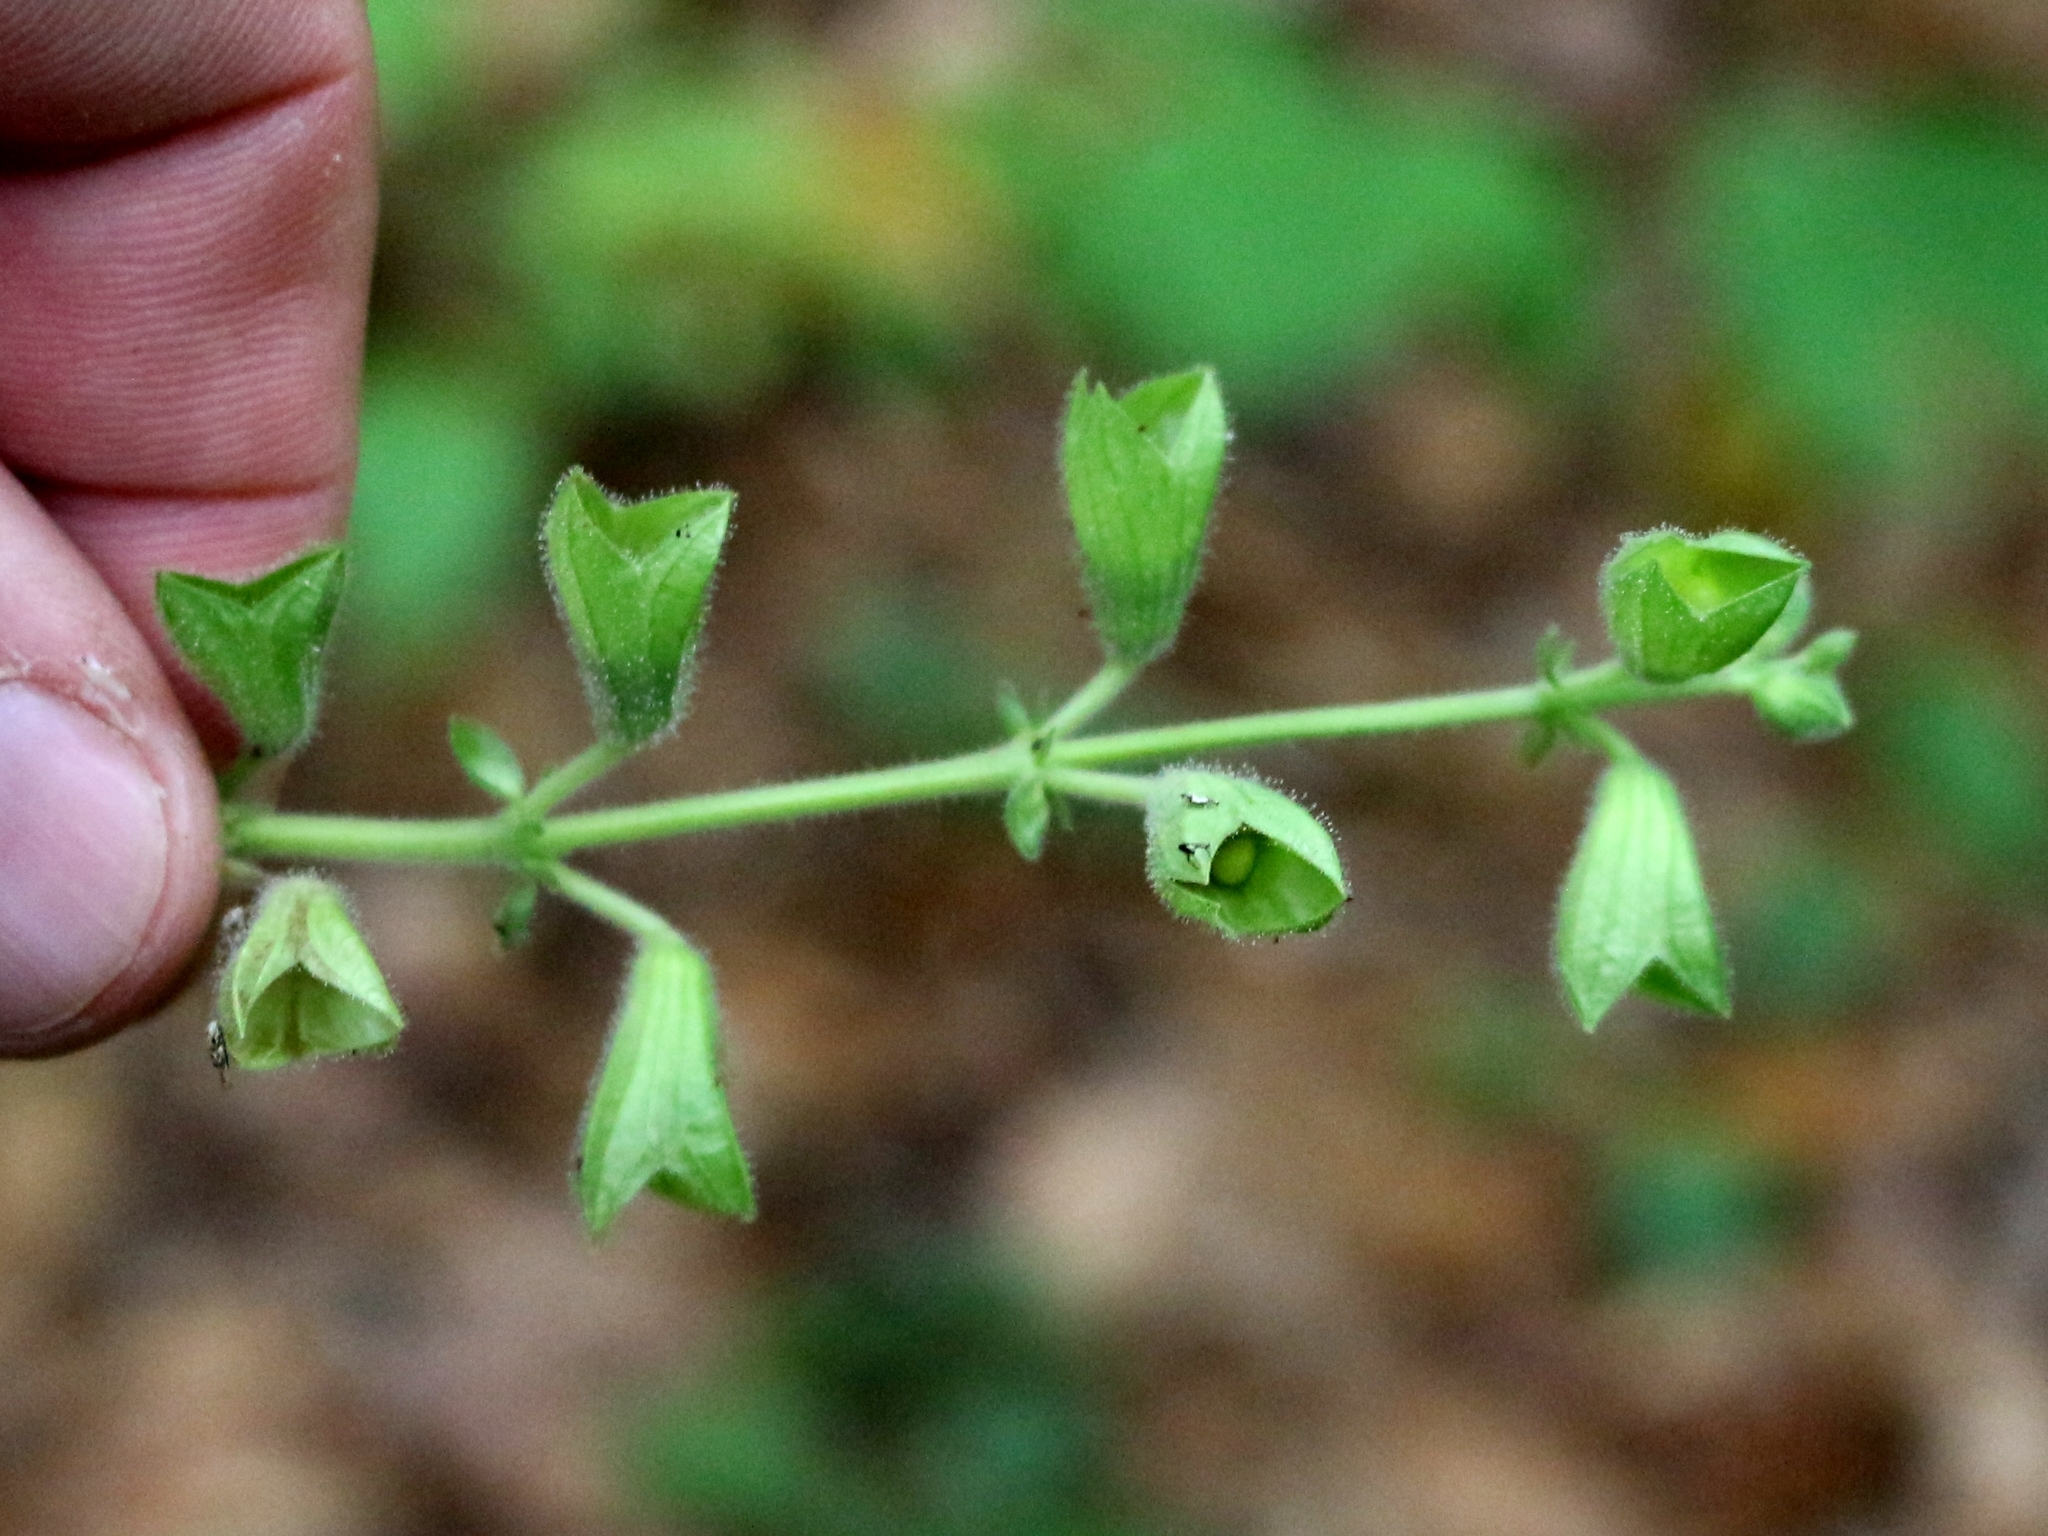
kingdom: Plantae
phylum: Tracheophyta
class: Magnoliopsida
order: Lamiales
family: Lamiaceae
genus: Salvia
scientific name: Salvia glutinosa
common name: Sticky clary
